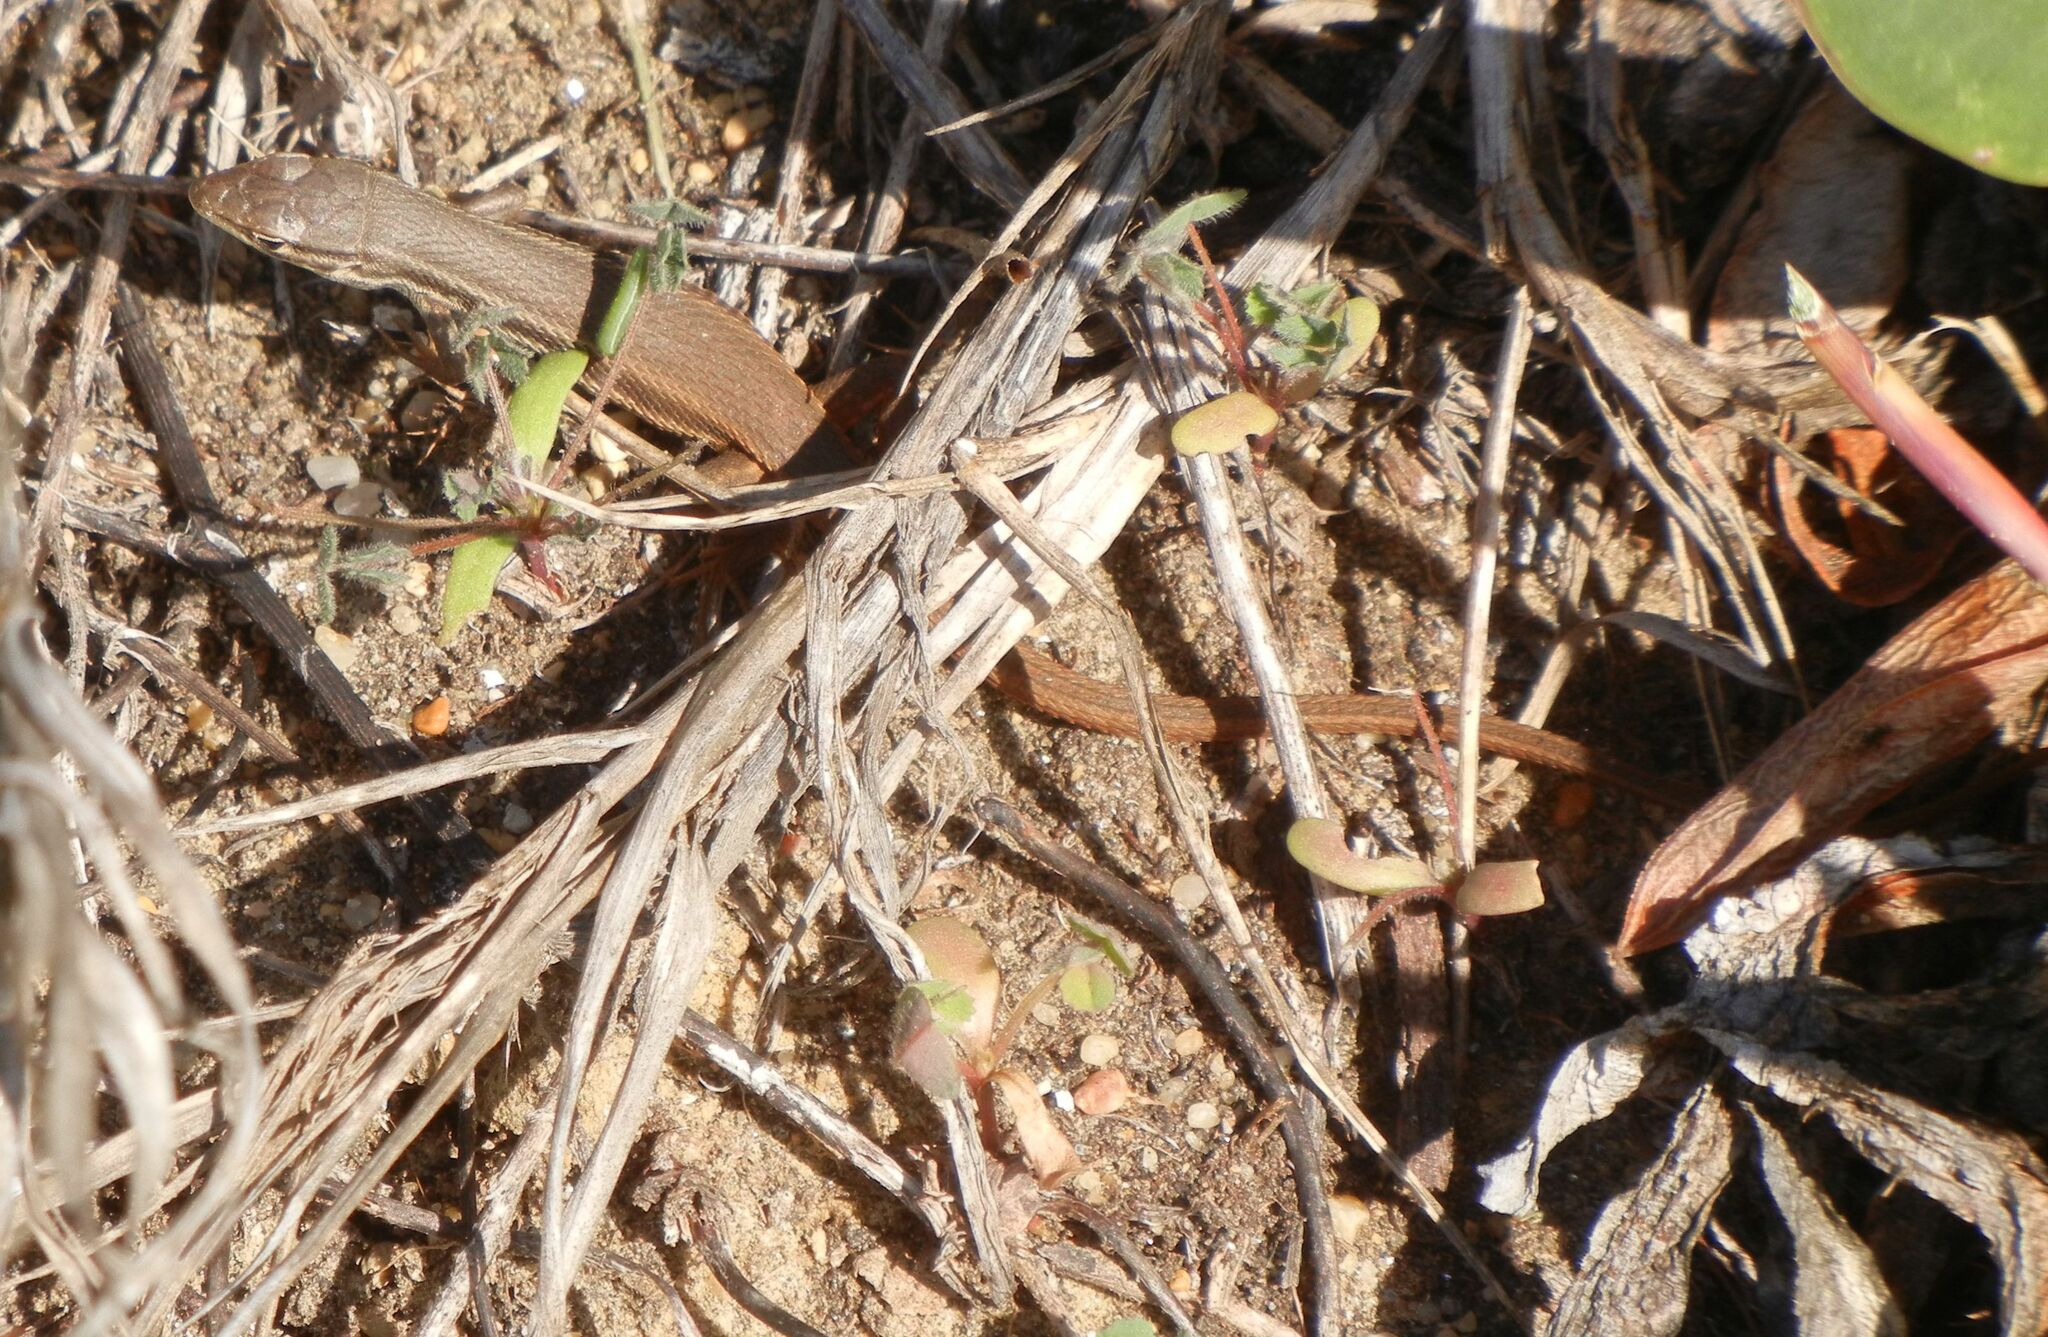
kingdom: Animalia
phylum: Chordata
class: Squamata
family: Lacertidae
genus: Psammodromus
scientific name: Psammodromus algirus
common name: Algerian psammodromus
